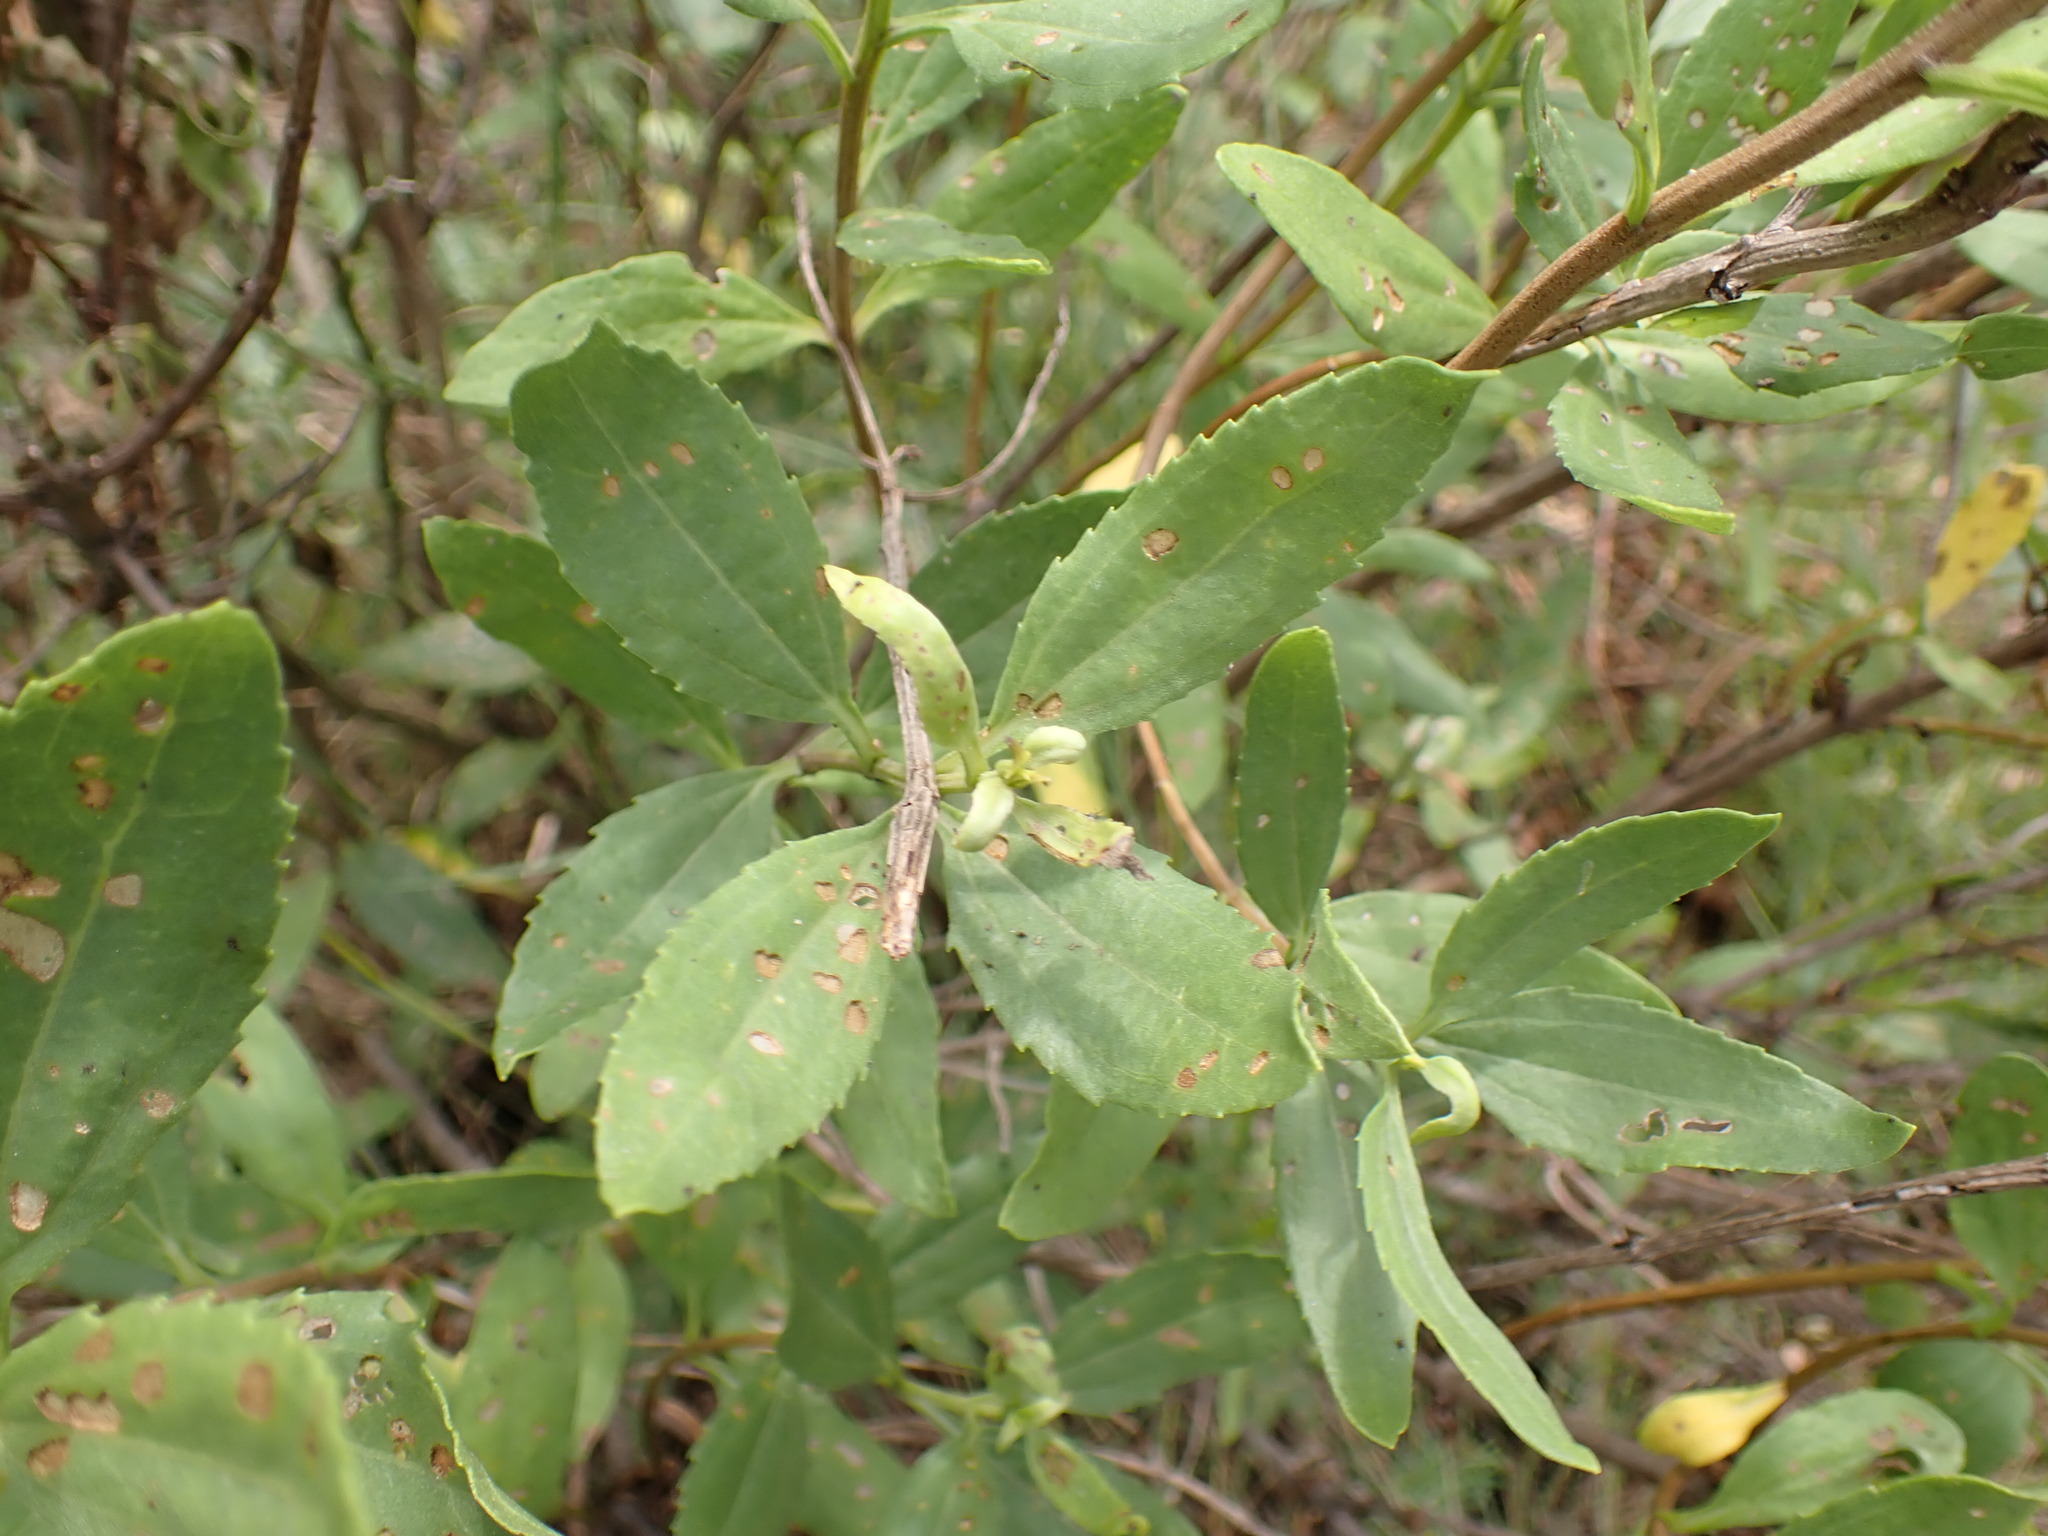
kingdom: Plantae
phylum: Tracheophyta
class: Magnoliopsida
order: Asterales
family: Asteraceae
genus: Iva
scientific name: Iva frutescens
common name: Big-leaved marsh-elder
